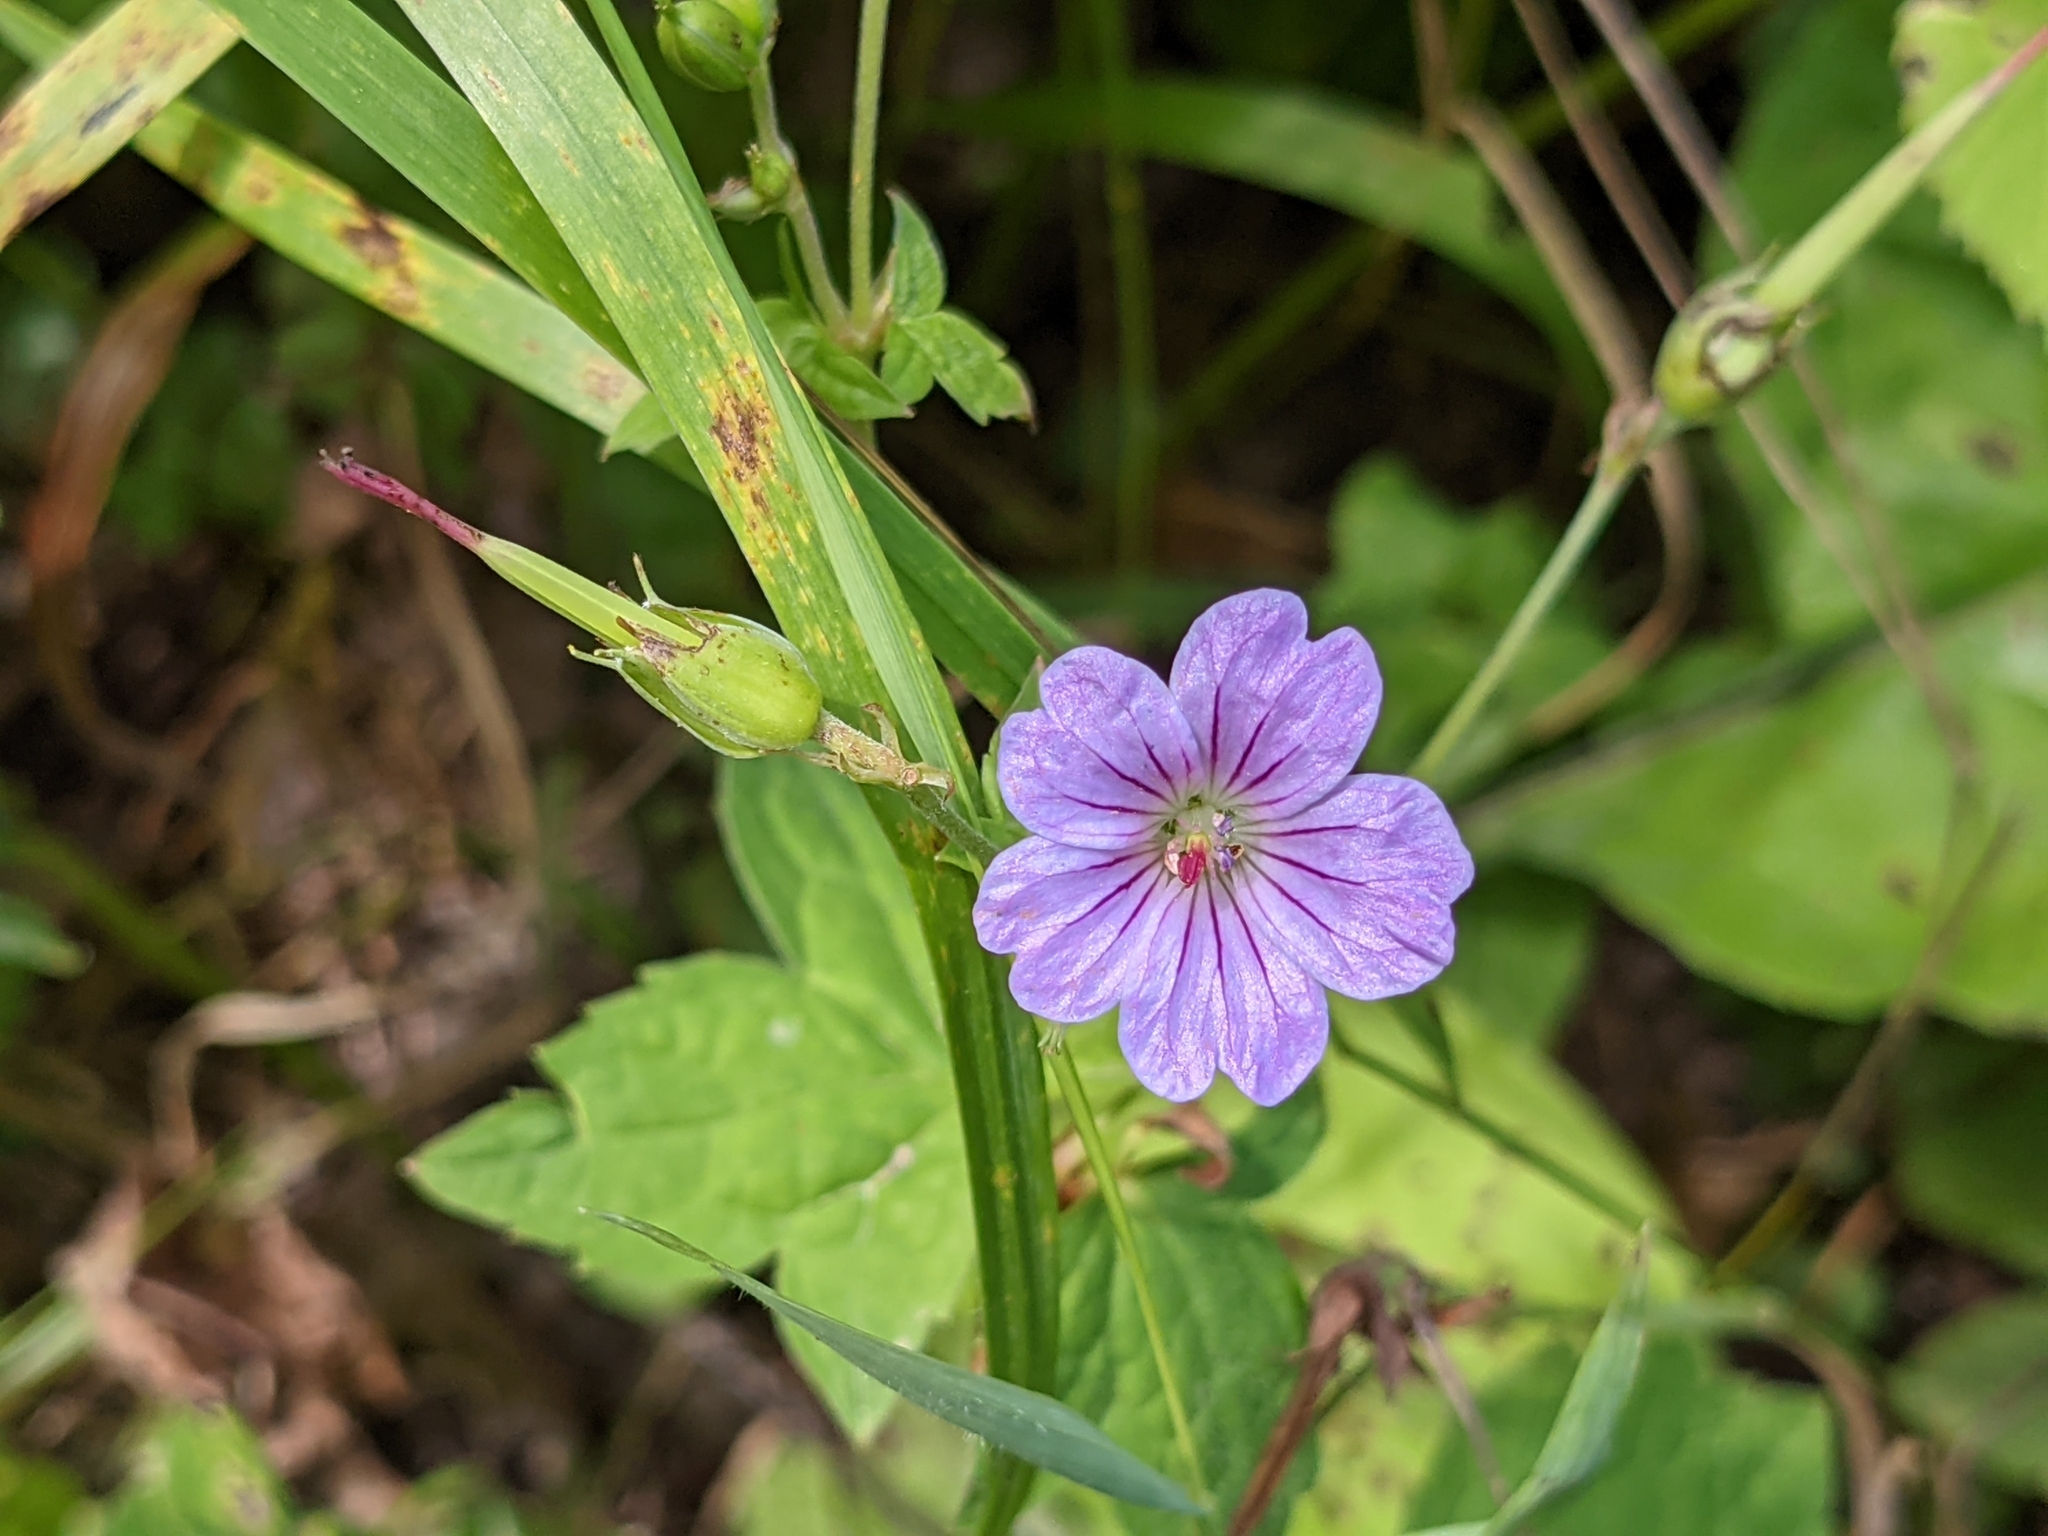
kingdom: Plantae
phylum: Tracheophyta
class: Magnoliopsida
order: Geraniales
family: Geraniaceae
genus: Geranium
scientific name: Geranium nodosum
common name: Knotted crane's-bill
